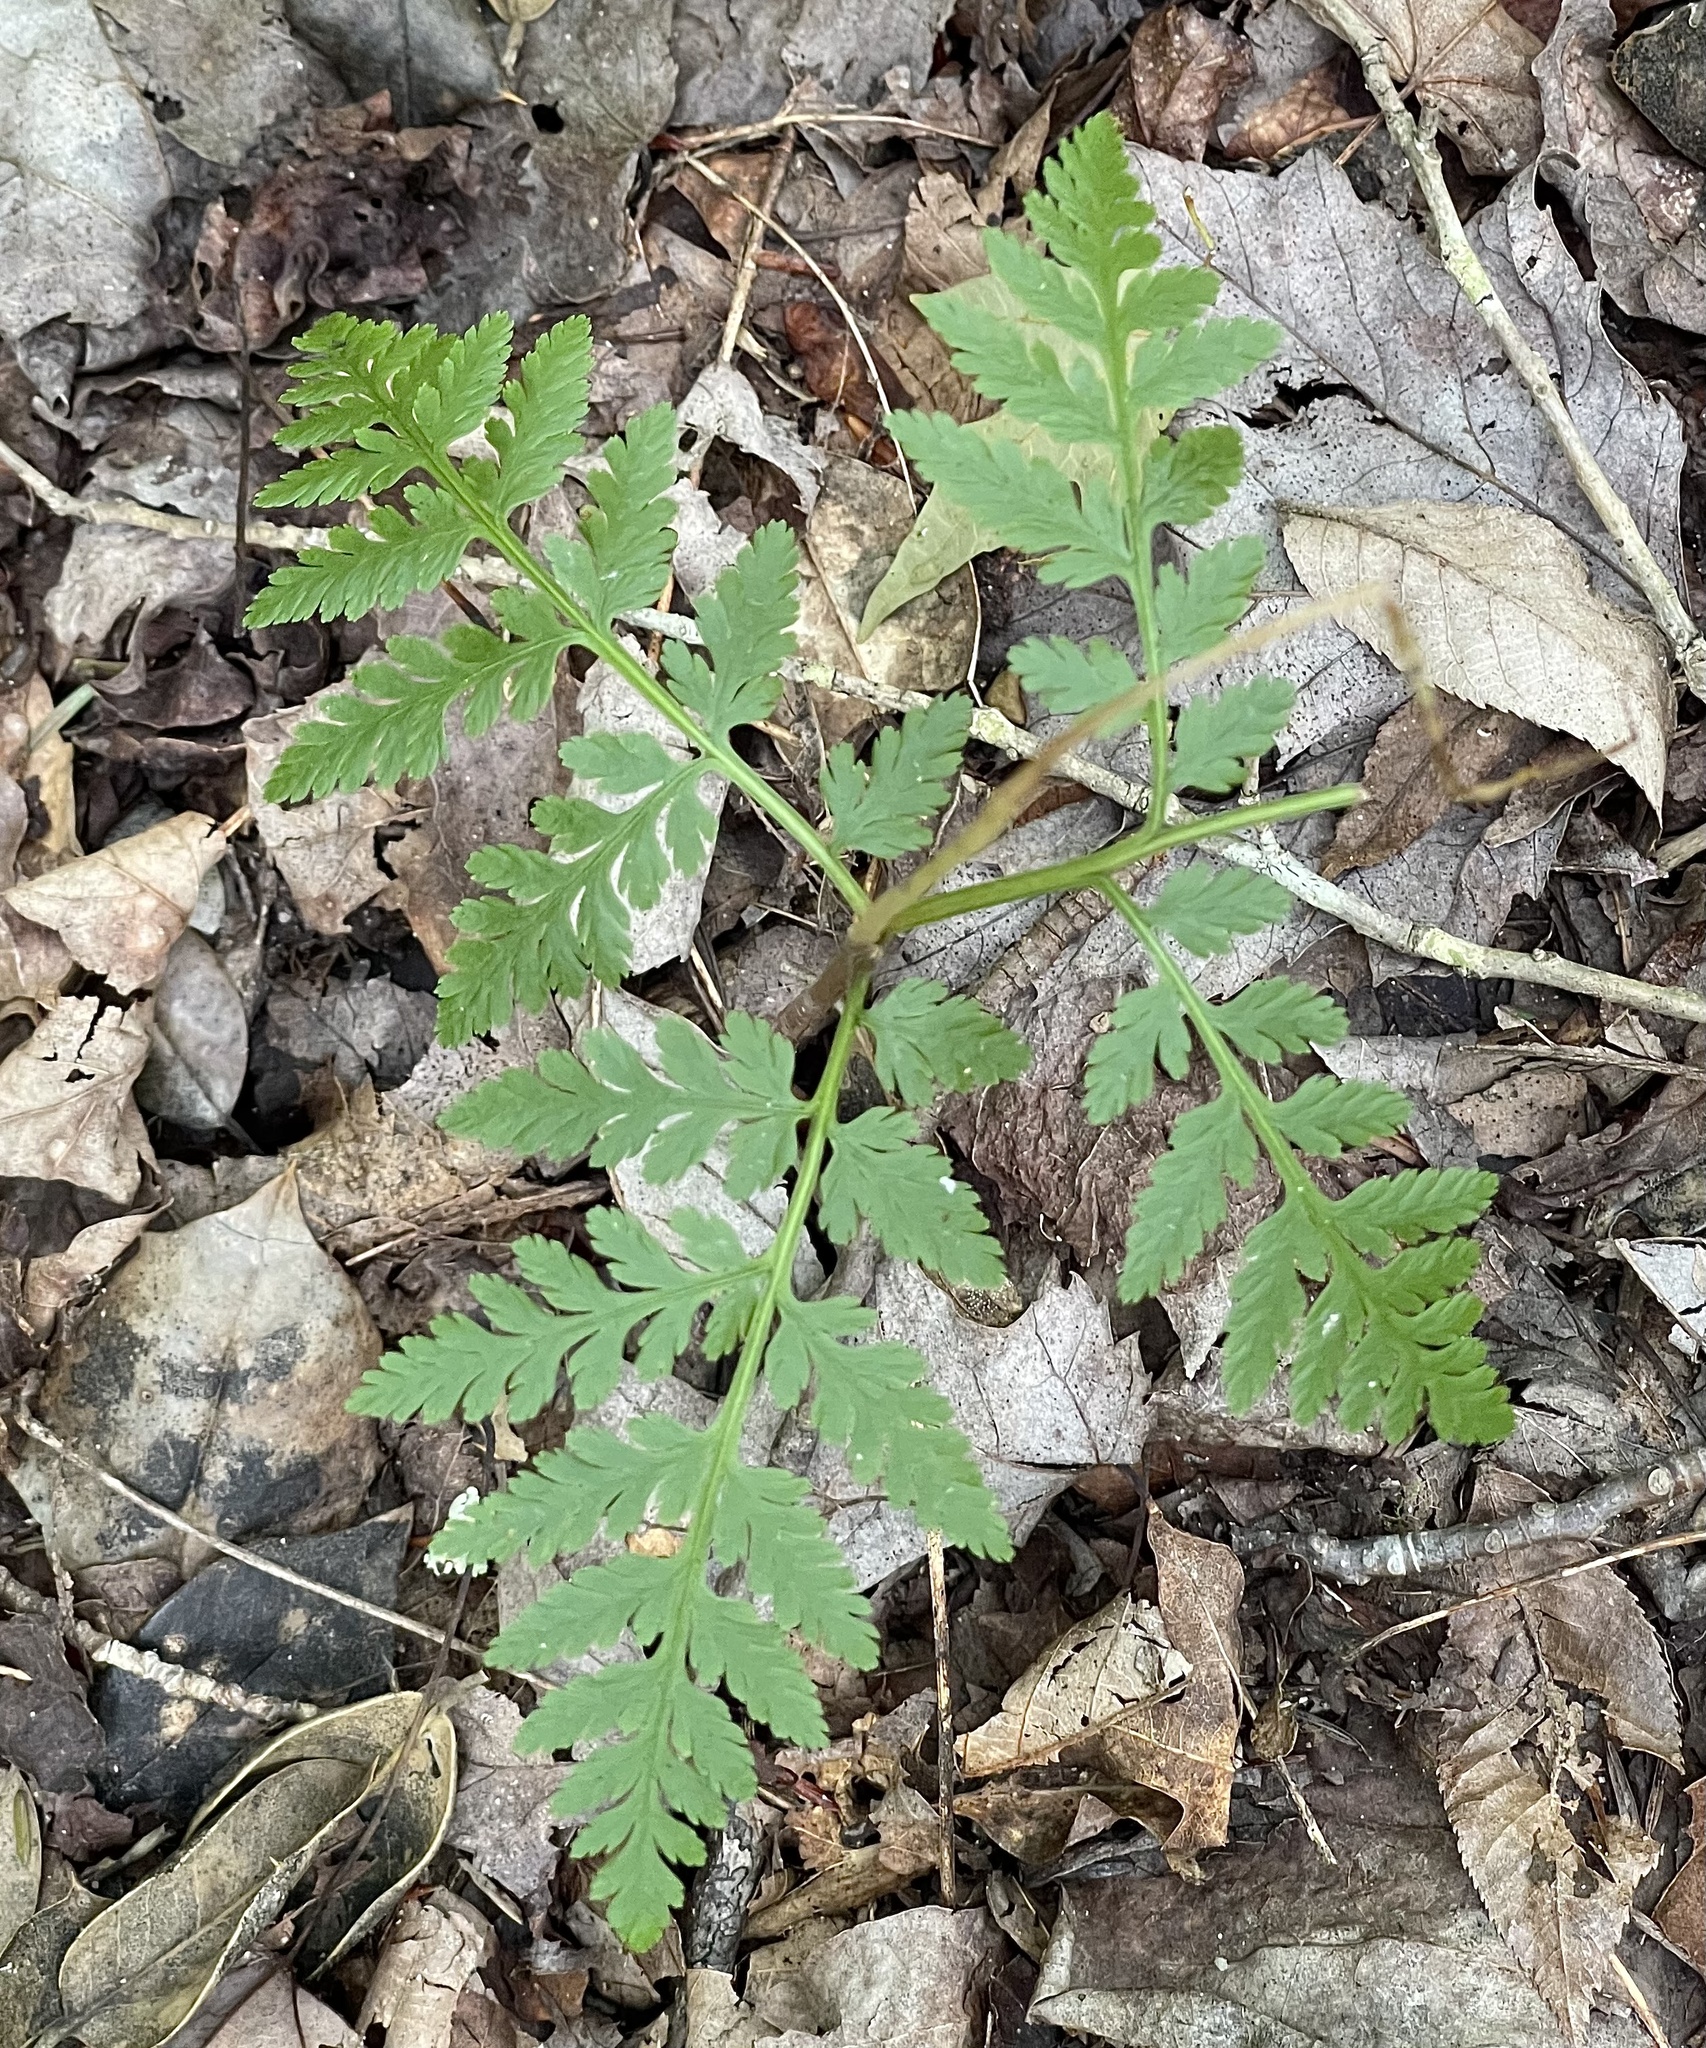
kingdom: Plantae
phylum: Tracheophyta
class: Polypodiopsida
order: Ophioglossales
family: Ophioglossaceae
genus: Botrypus
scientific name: Botrypus virginianus
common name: Common grapefern
